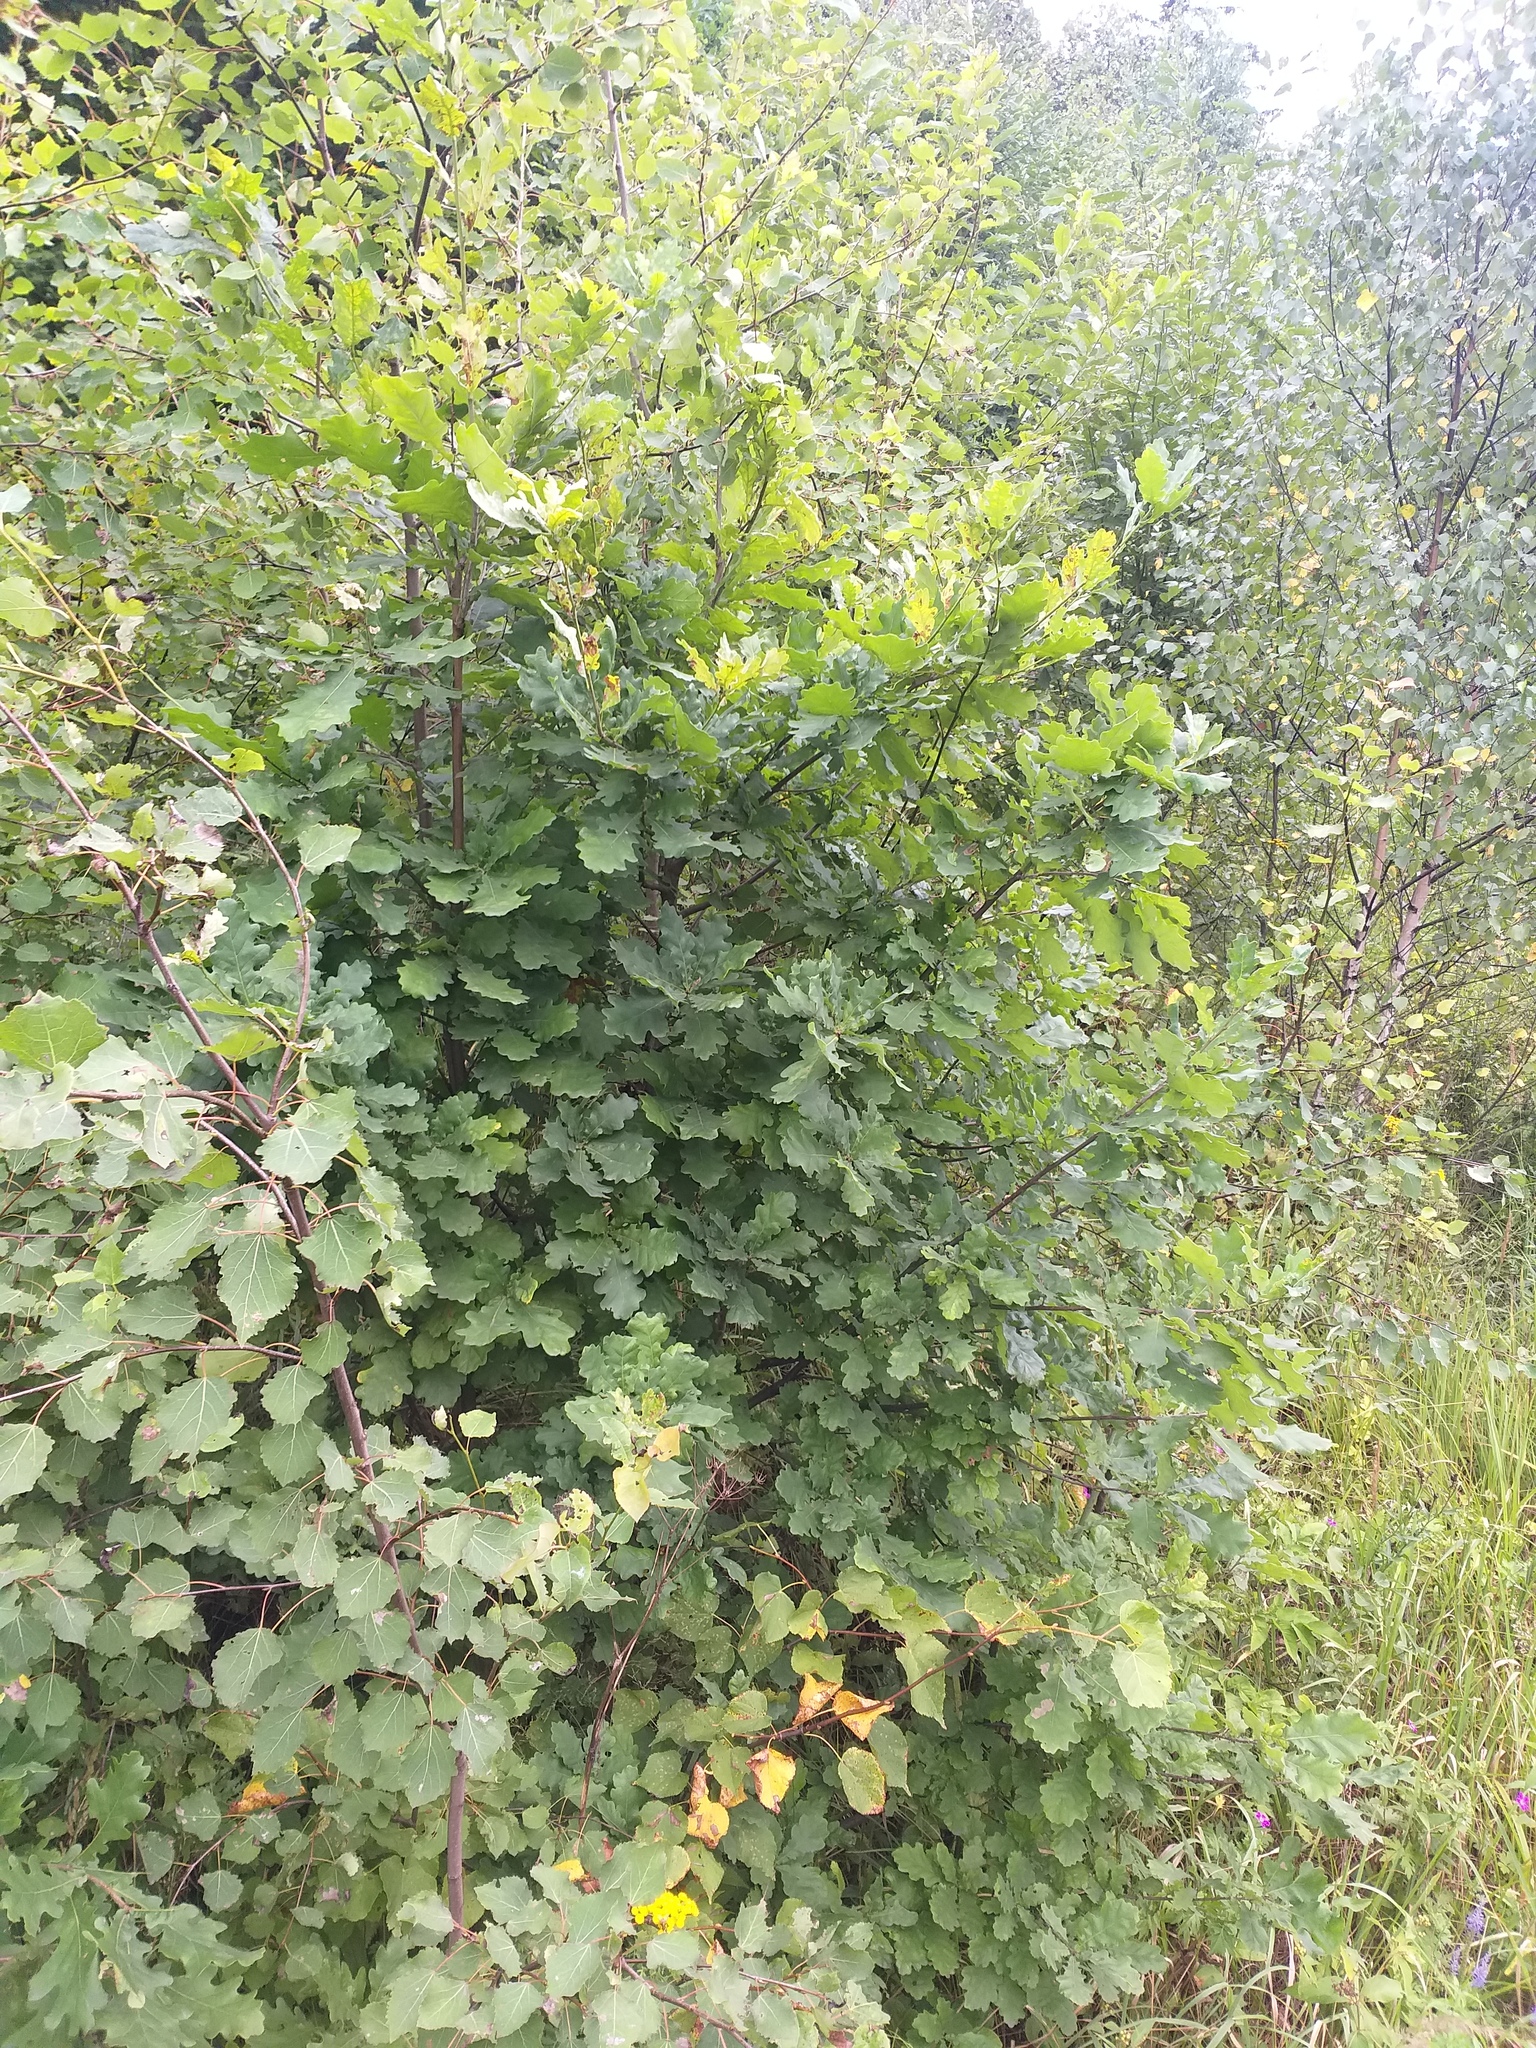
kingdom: Plantae
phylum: Tracheophyta
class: Magnoliopsida
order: Fagales
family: Fagaceae
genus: Quercus
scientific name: Quercus robur
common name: Pedunculate oak
